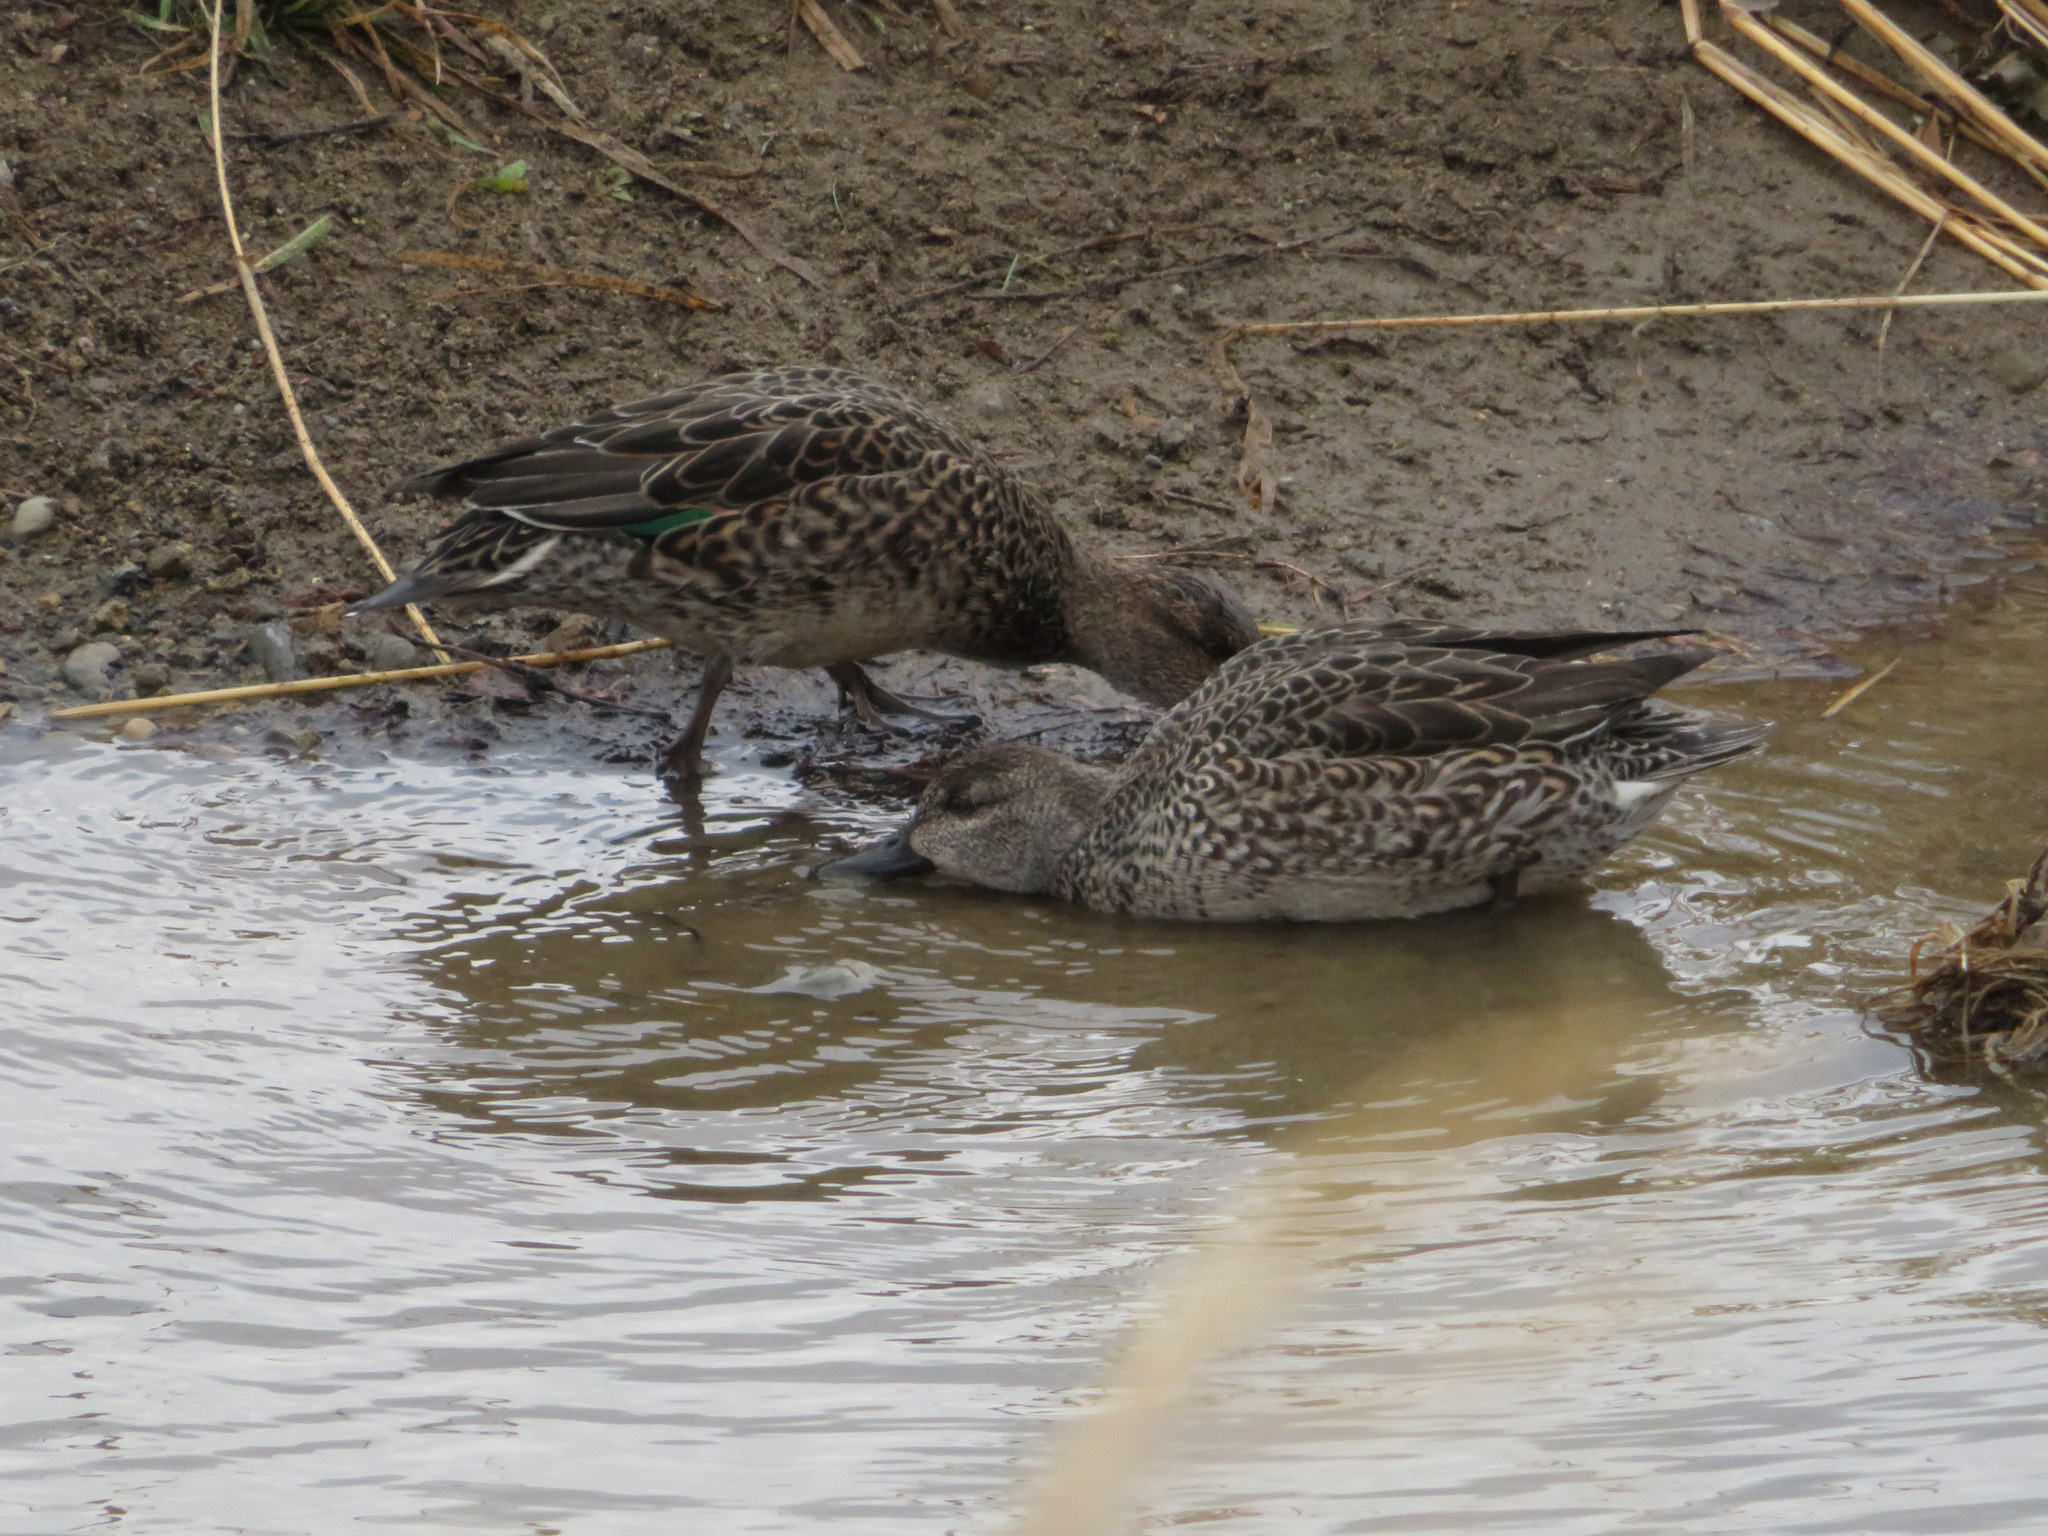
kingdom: Animalia
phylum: Chordata
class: Aves
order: Anseriformes
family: Anatidae
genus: Anas
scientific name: Anas crecca
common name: Eurasian teal
